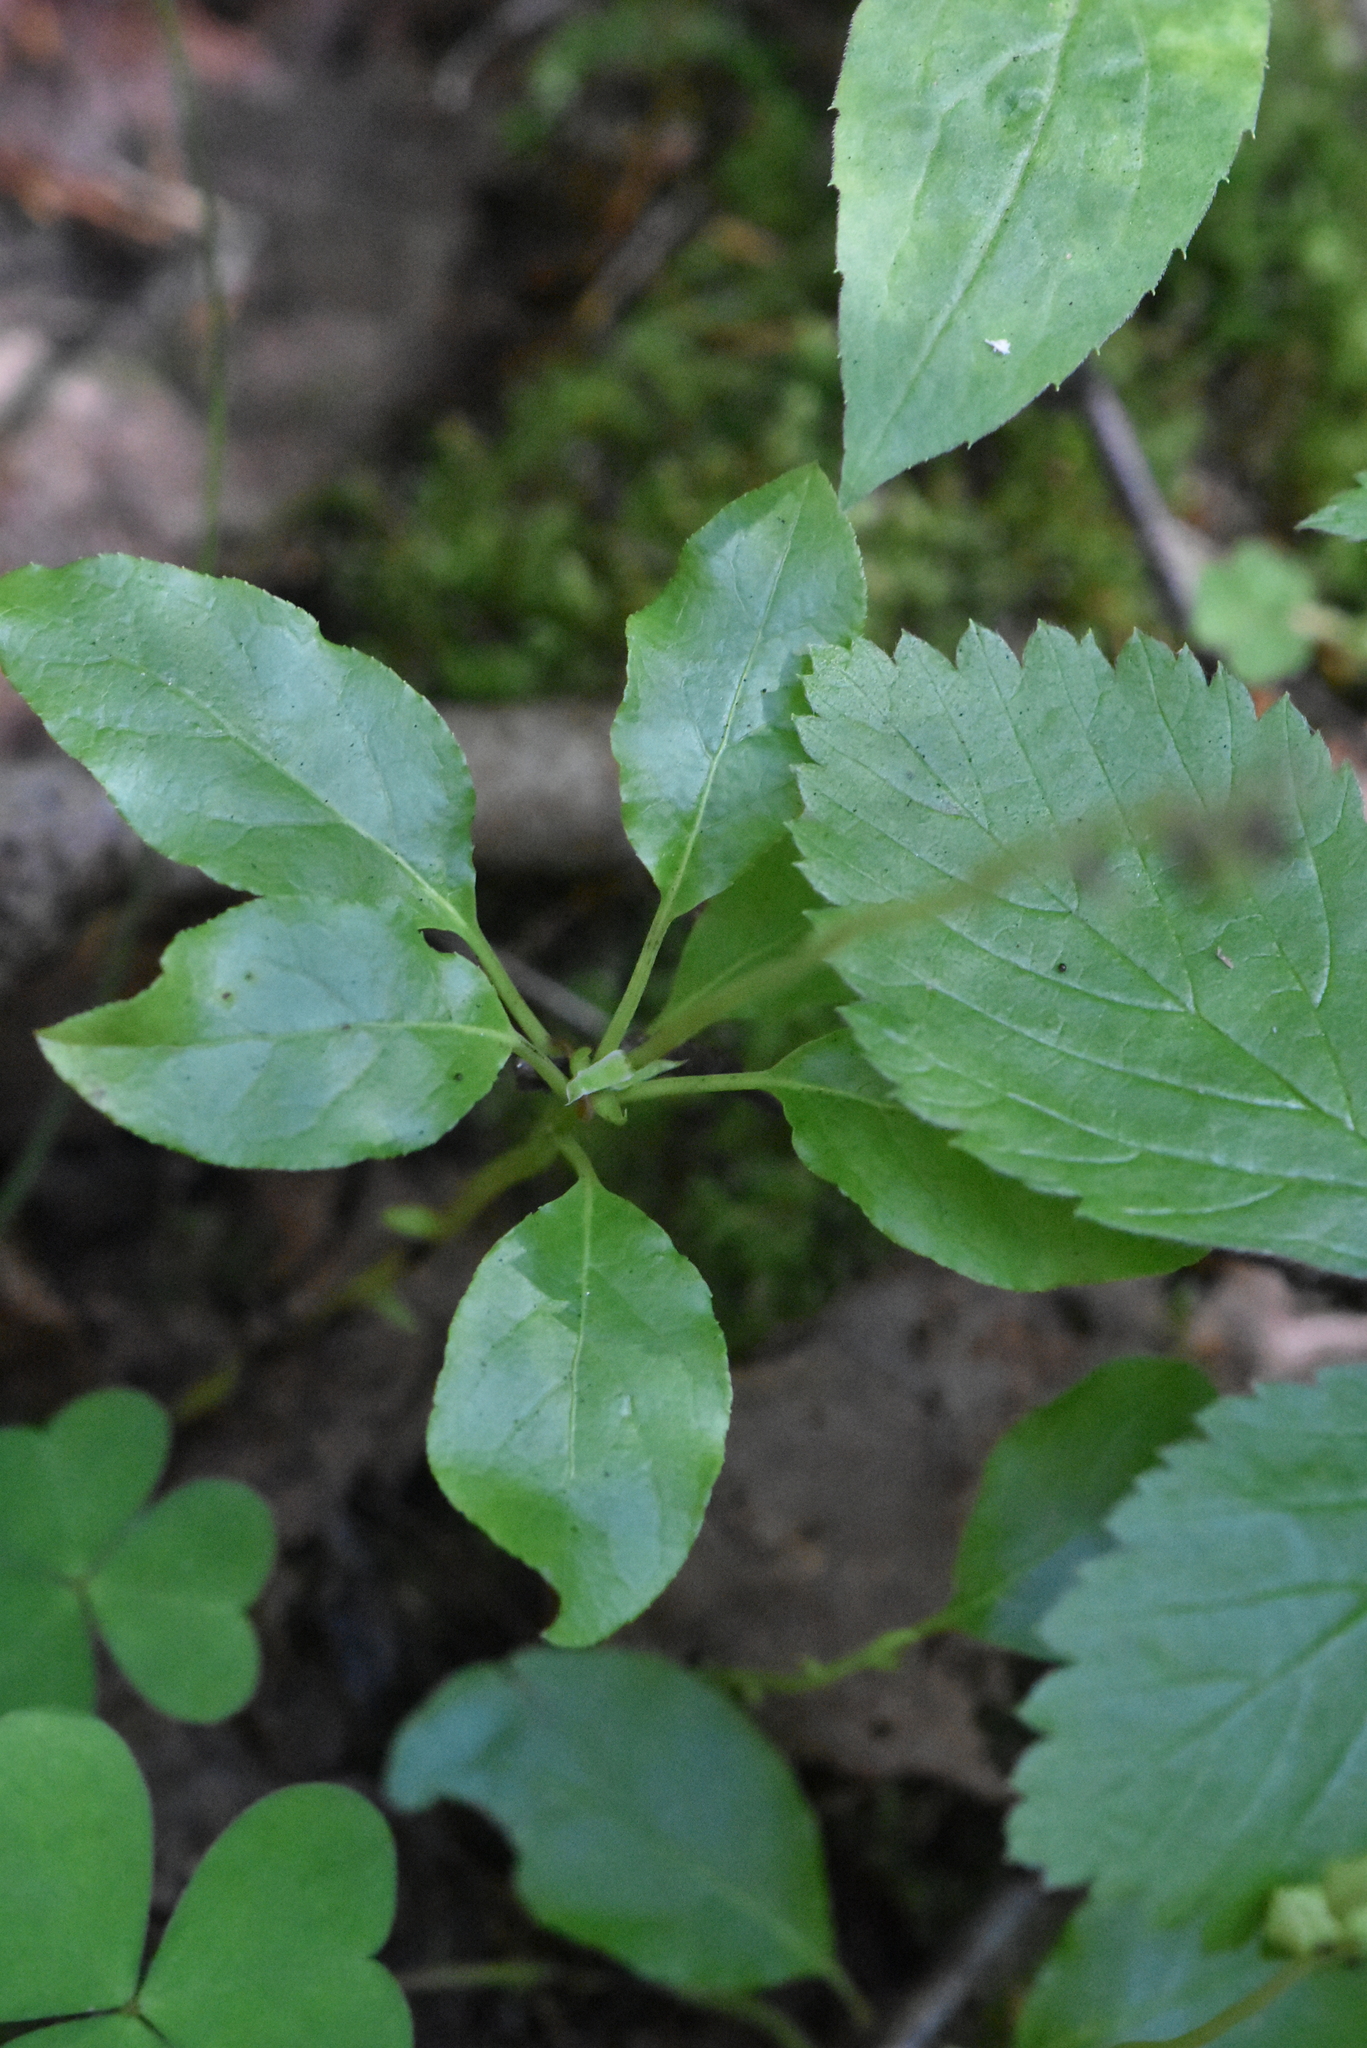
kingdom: Plantae
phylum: Tracheophyta
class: Magnoliopsida
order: Ericales
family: Ericaceae
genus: Orthilia
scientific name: Orthilia secunda
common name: One-sided orthilia
